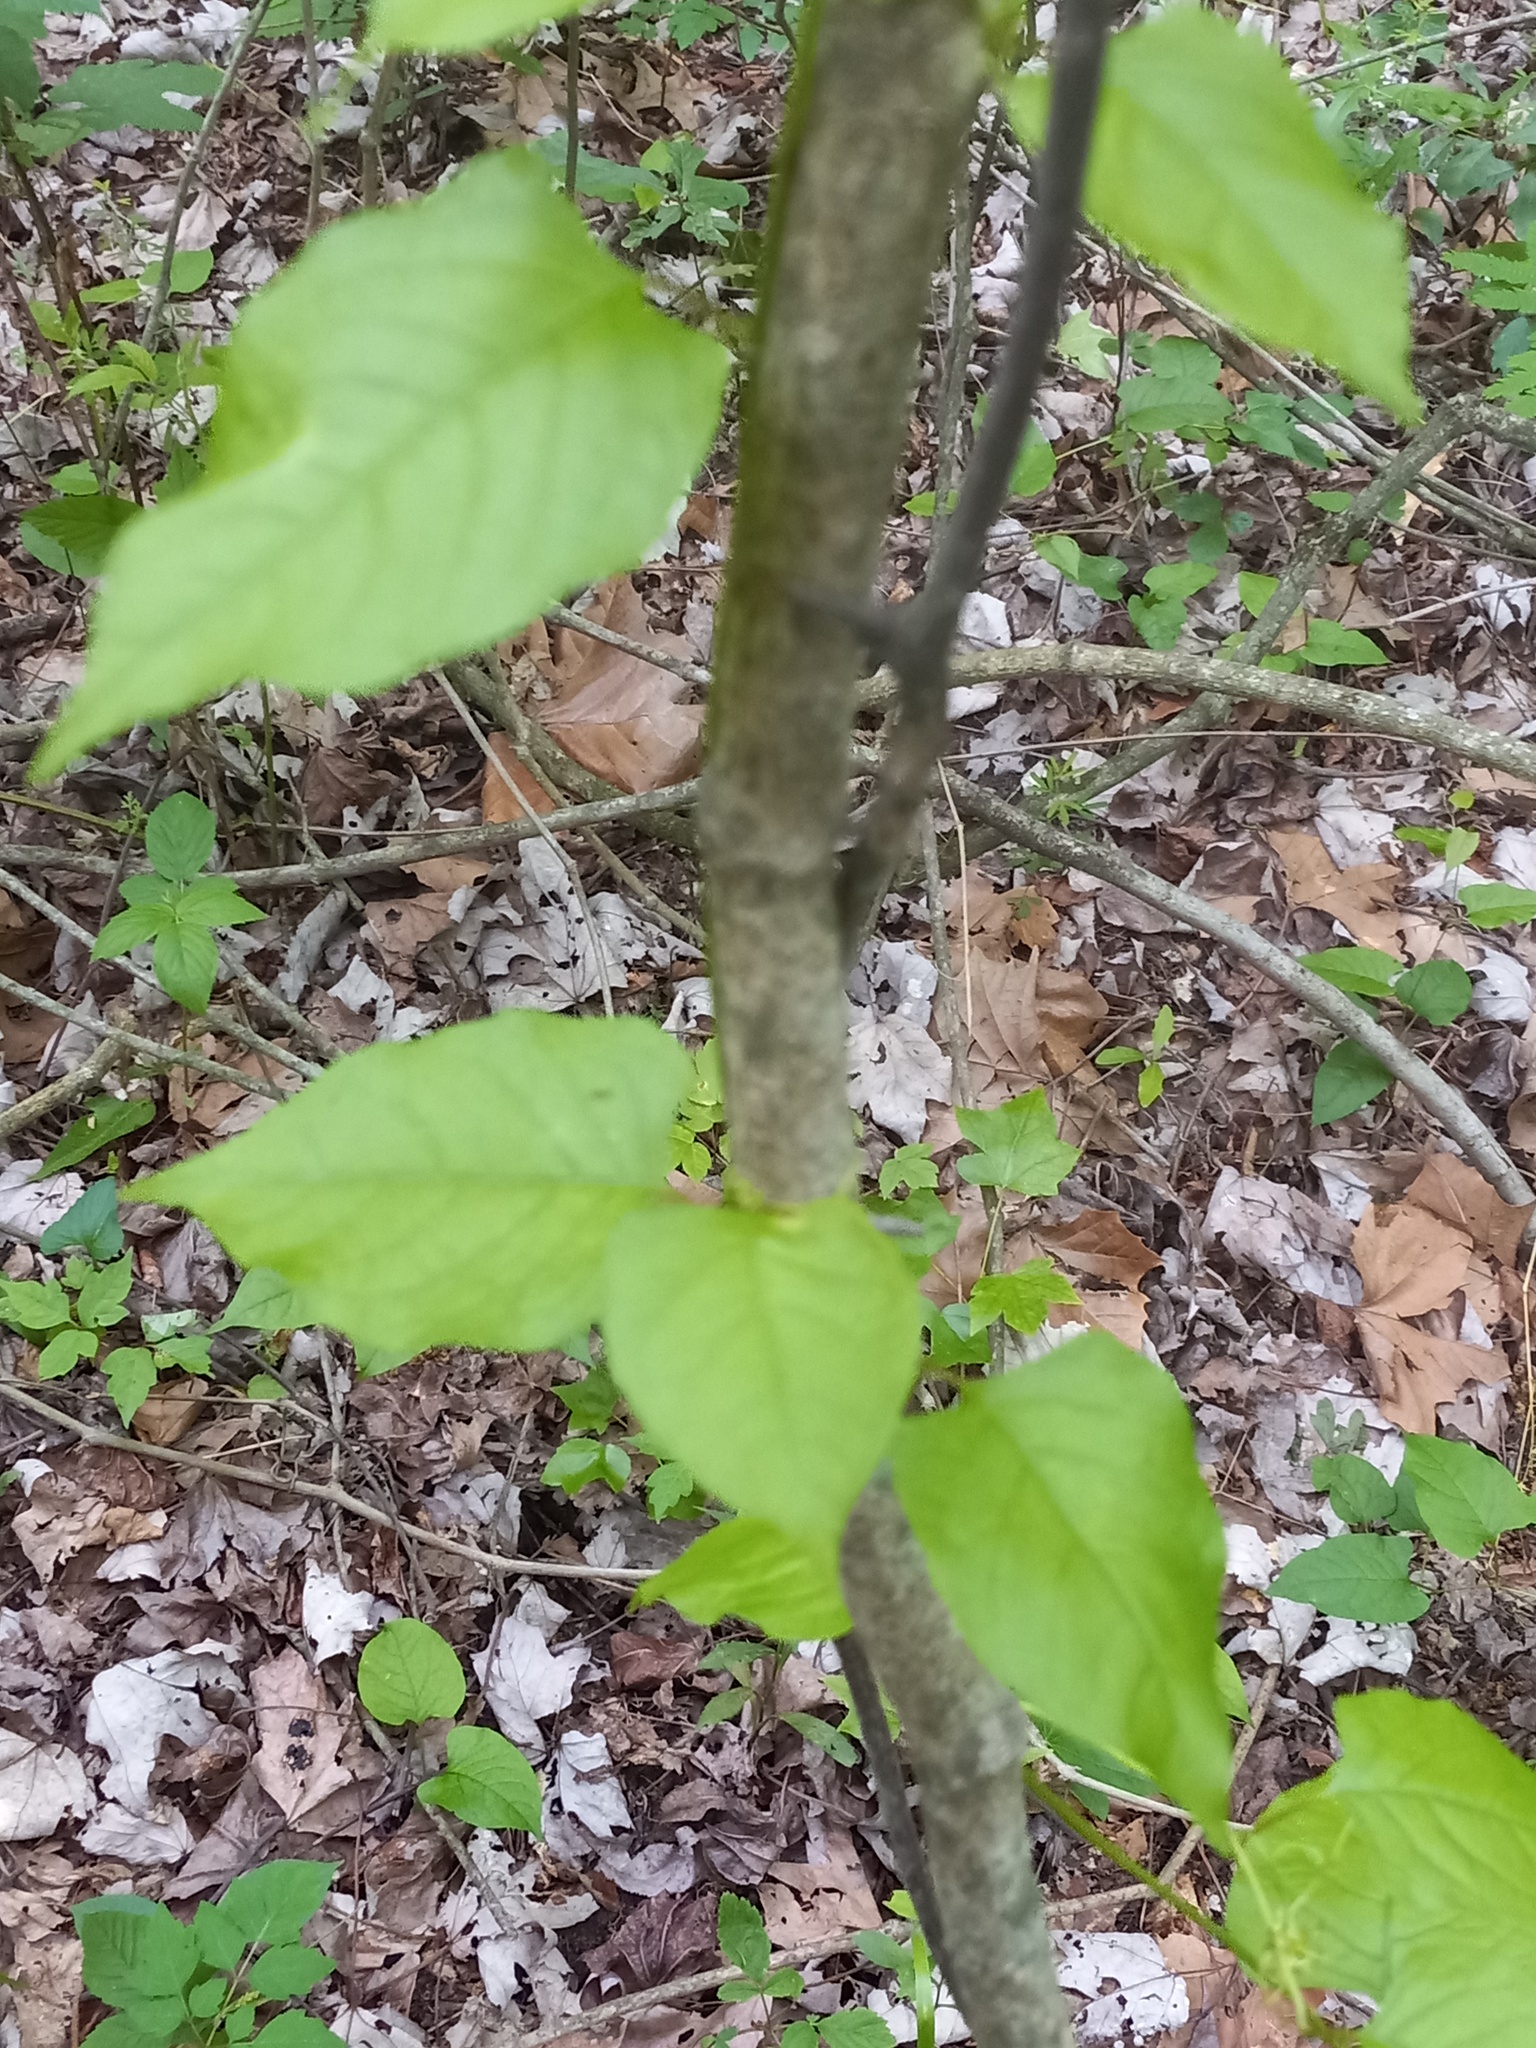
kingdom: Plantae
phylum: Tracheophyta
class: Magnoliopsida
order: Caryophyllales
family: Polygonaceae
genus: Brunnichia
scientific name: Brunnichia ovata
